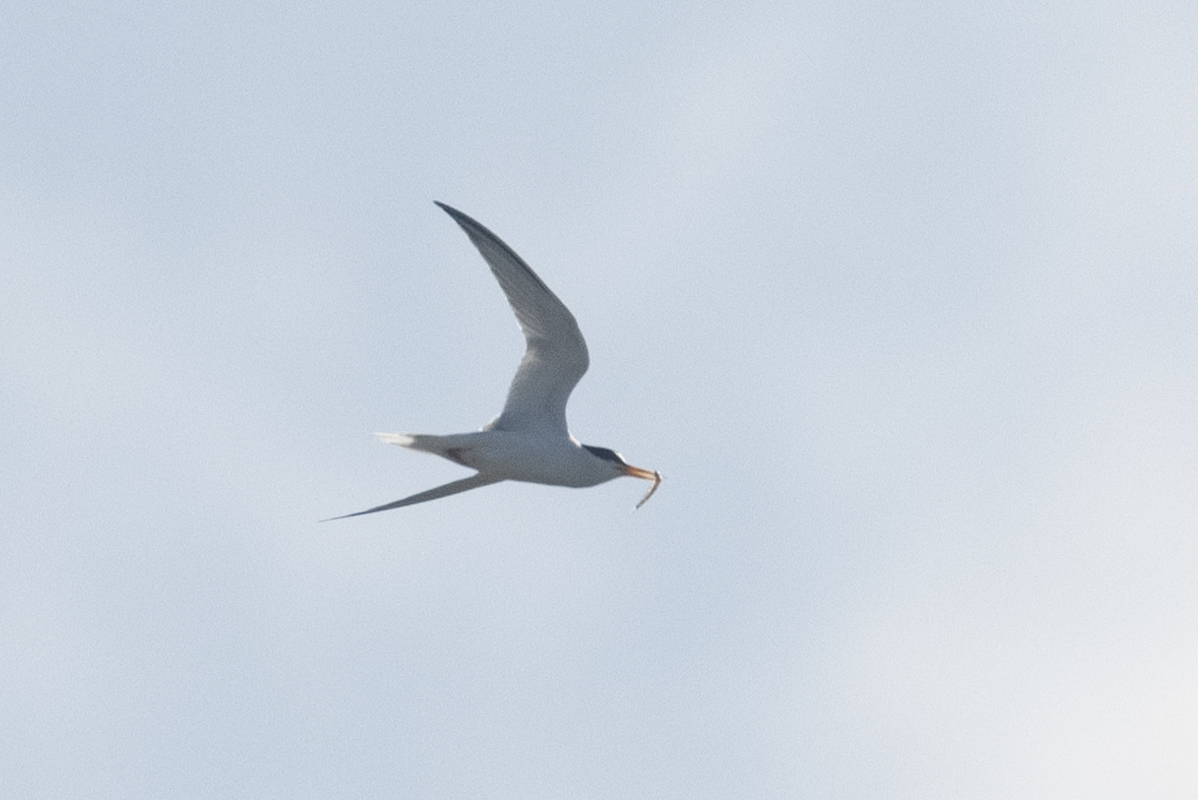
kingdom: Animalia
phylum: Chordata
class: Aves
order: Charadriiformes
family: Laridae
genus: Sternula
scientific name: Sternula antillarum
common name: Least tern
